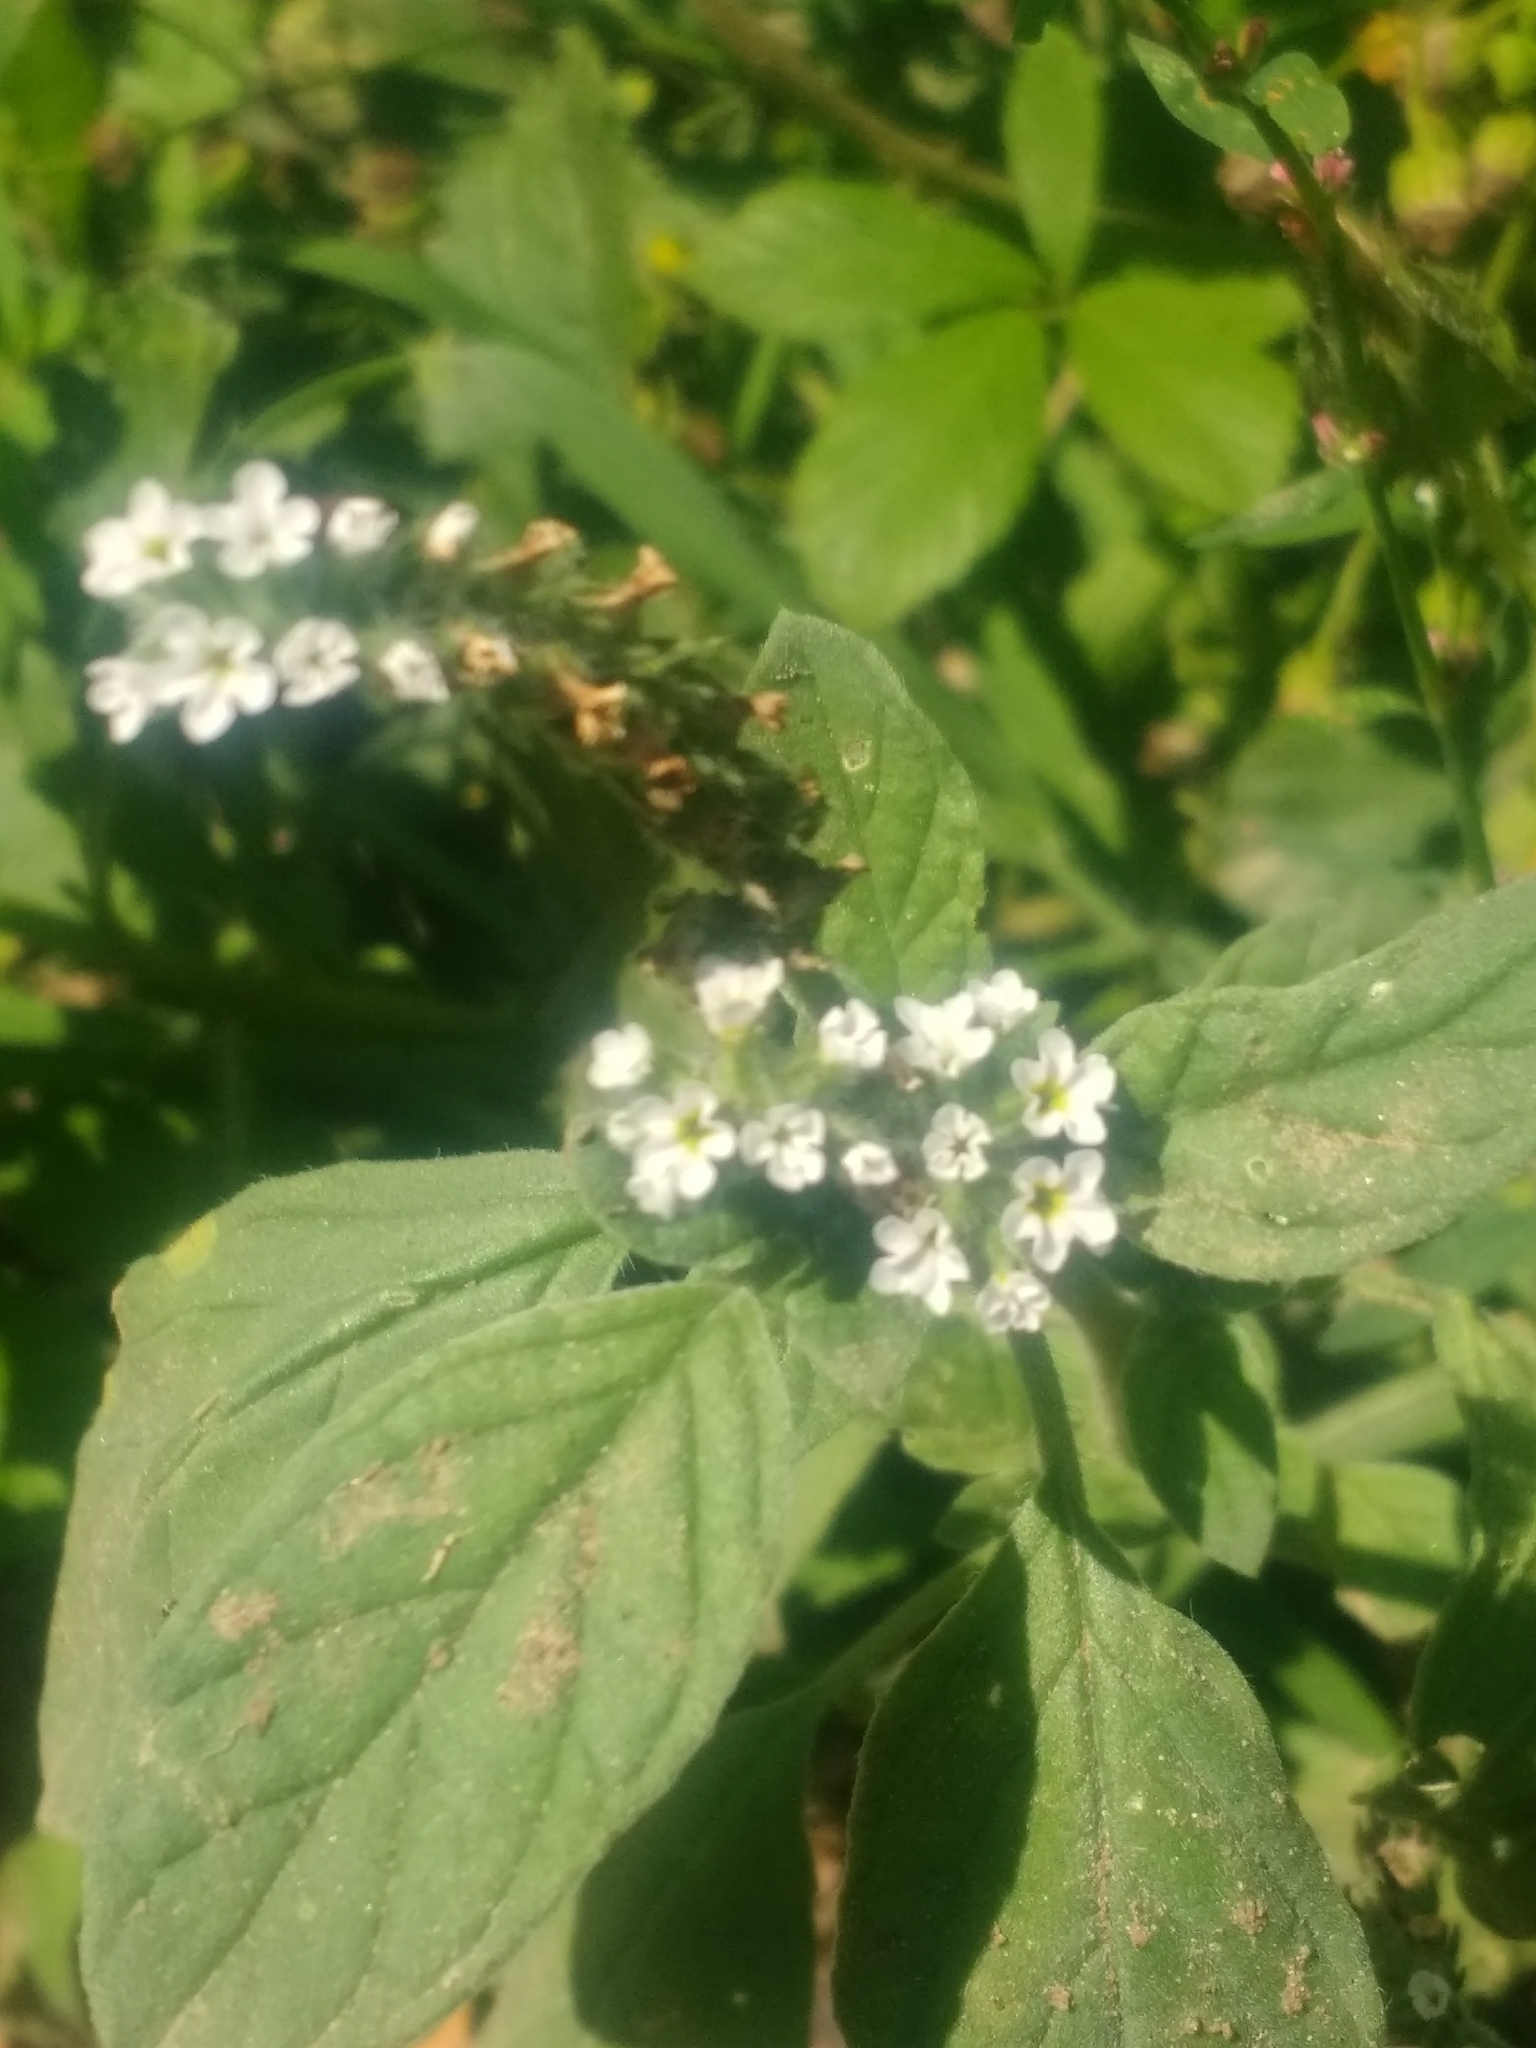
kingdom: Plantae
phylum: Tracheophyta
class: Magnoliopsida
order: Boraginales
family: Heliotropiaceae
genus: Heliotropium
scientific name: Heliotropium europaeum
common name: European heliotrope
